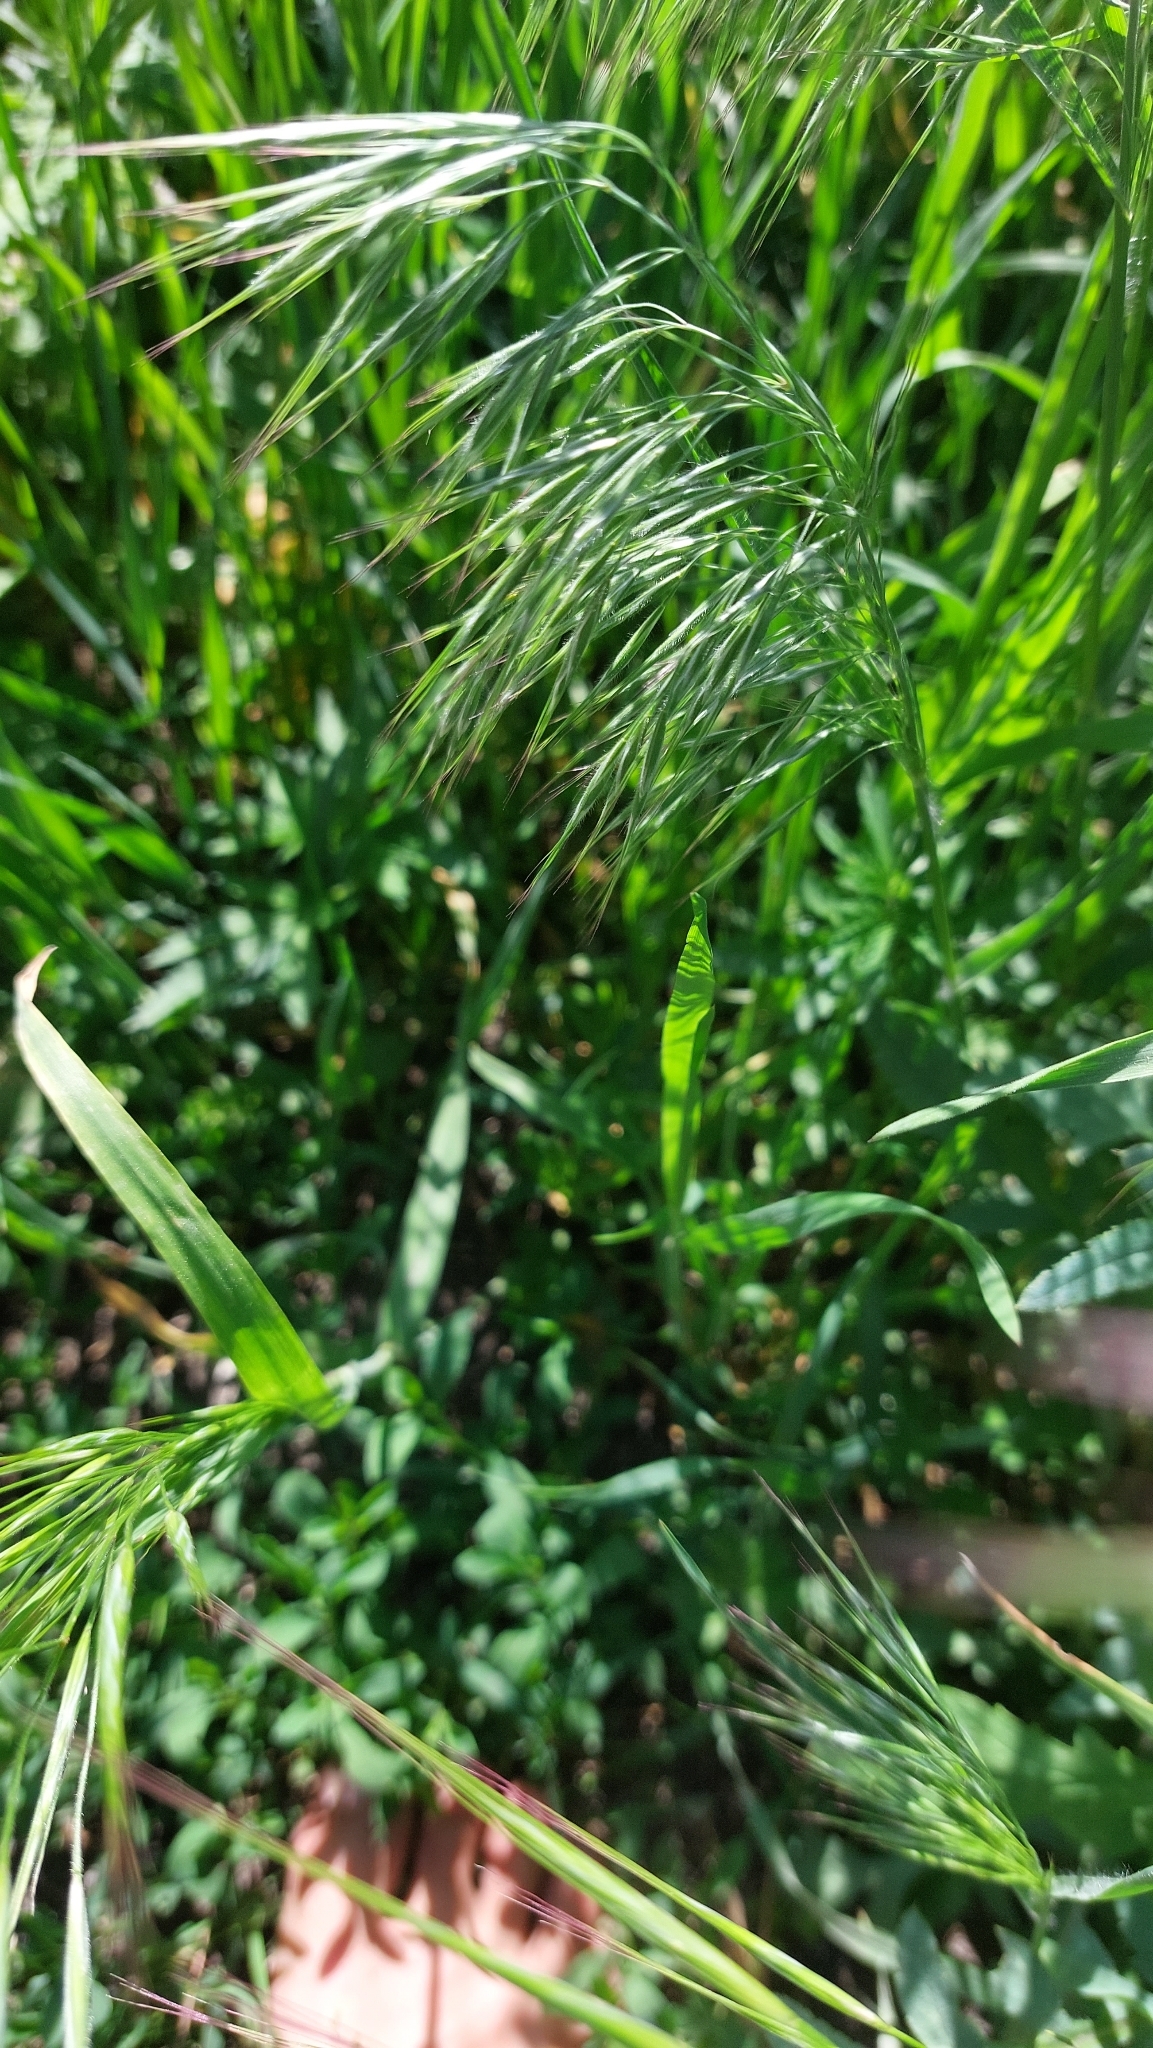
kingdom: Plantae
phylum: Tracheophyta
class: Liliopsida
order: Poales
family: Poaceae
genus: Bromus
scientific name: Bromus tectorum
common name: Cheatgrass
